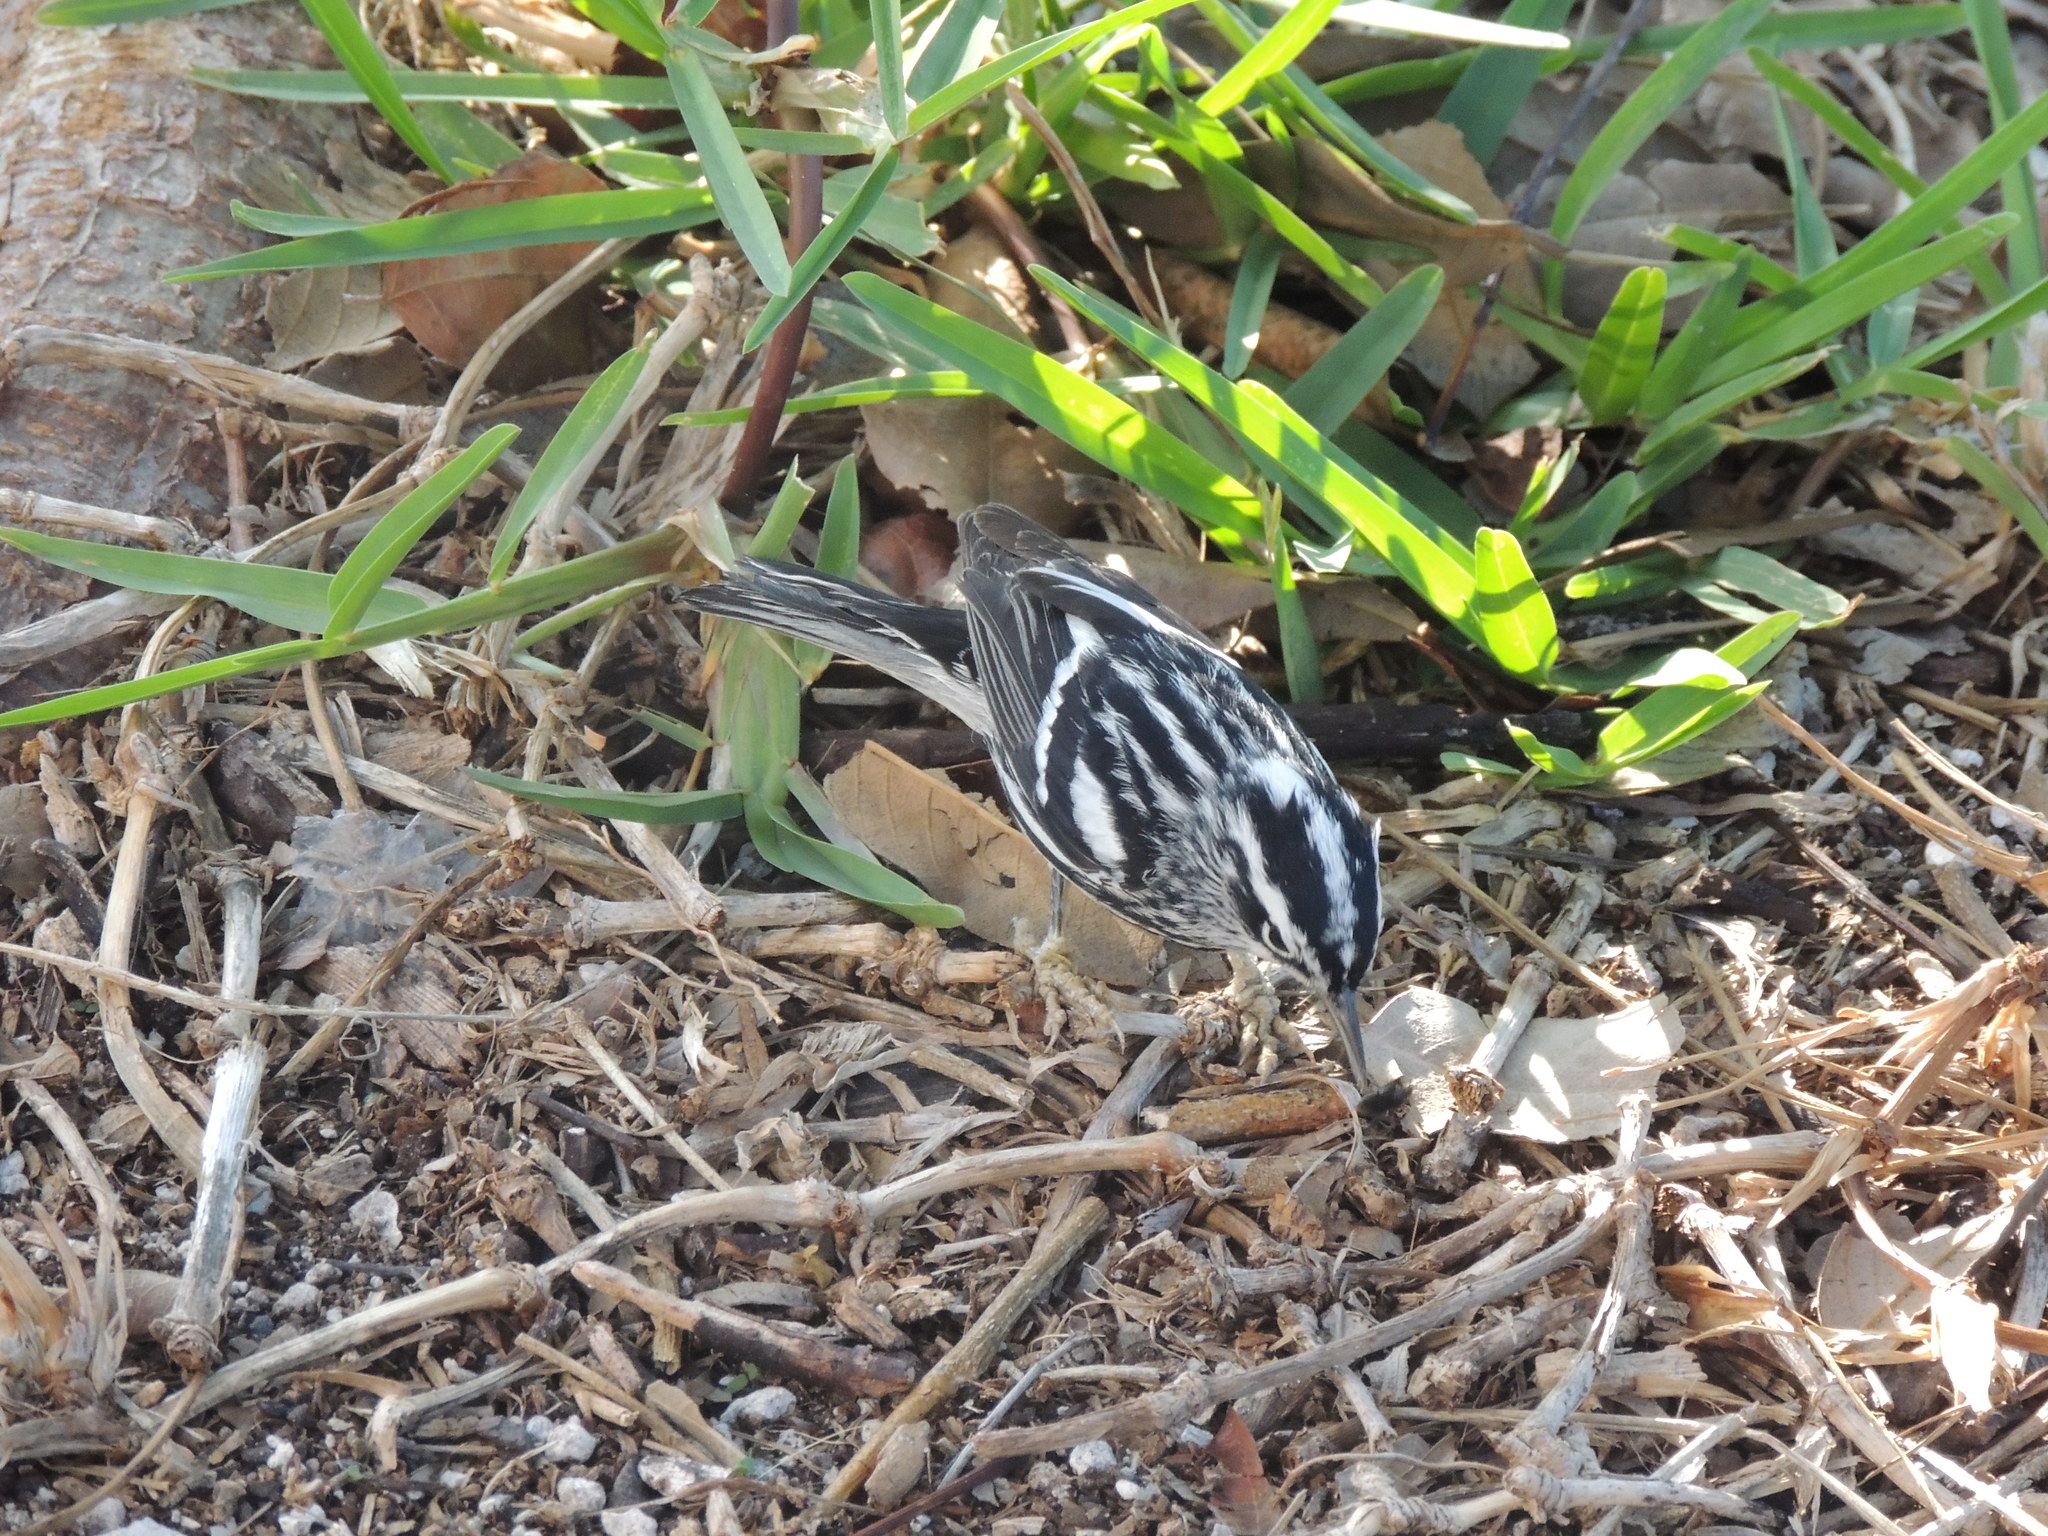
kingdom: Animalia
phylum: Chordata
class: Aves
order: Passeriformes
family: Parulidae
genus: Mniotilta
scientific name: Mniotilta varia
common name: Black-and-white warbler
